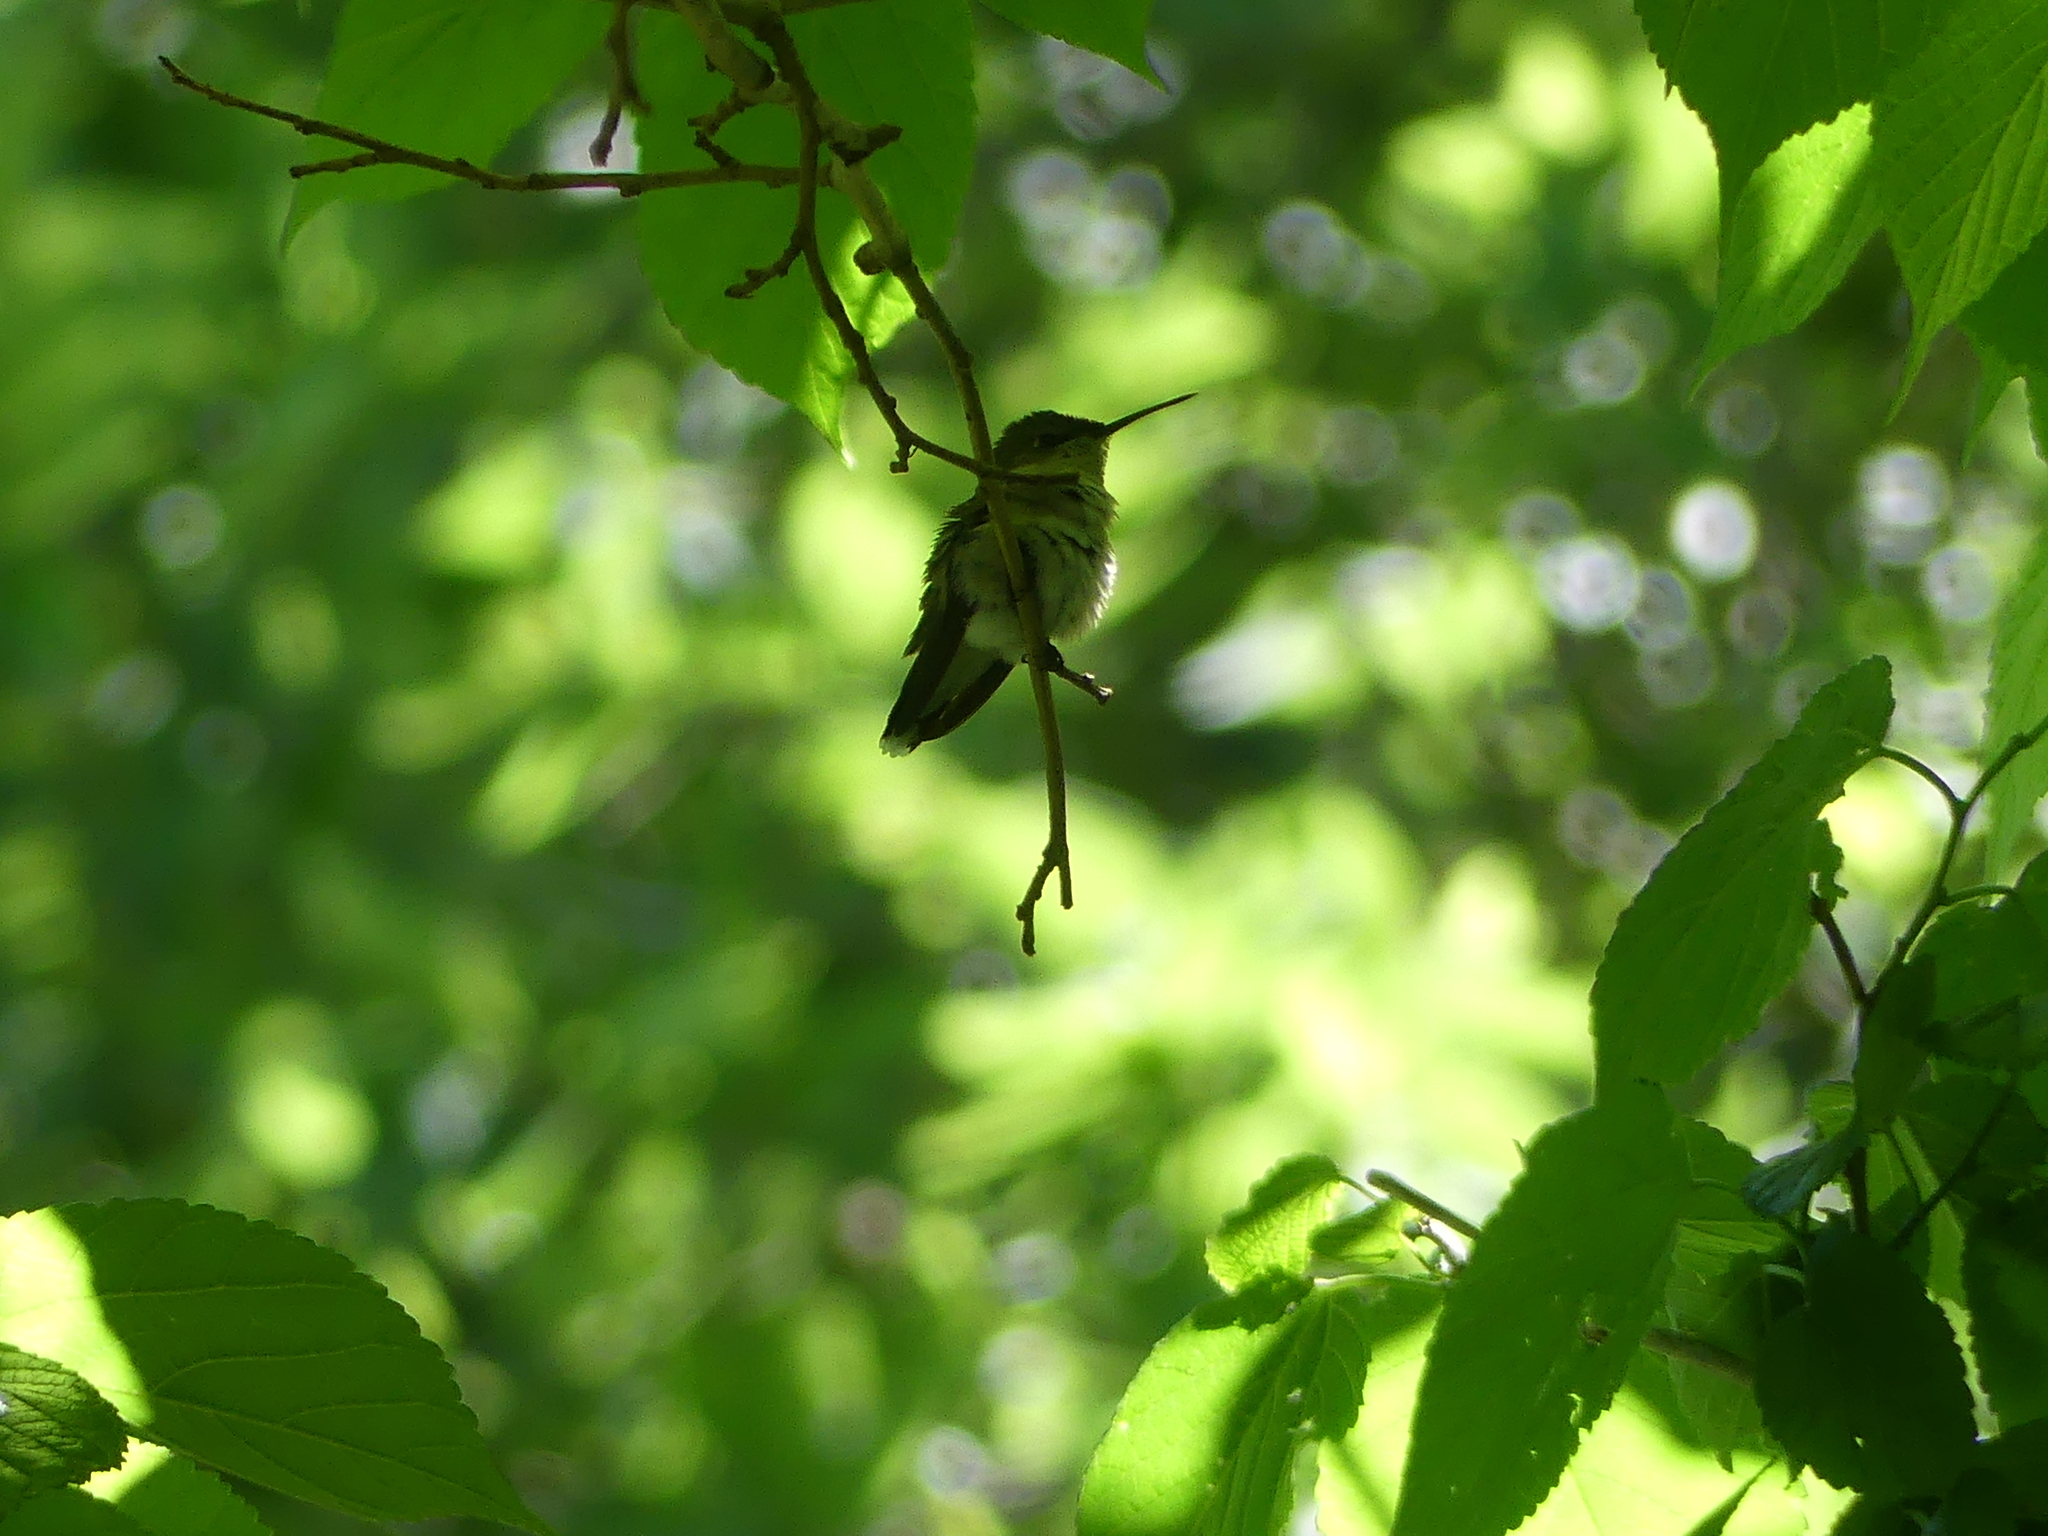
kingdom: Animalia
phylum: Chordata
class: Aves
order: Apodiformes
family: Trochilidae
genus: Archilochus
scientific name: Archilochus colubris
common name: Ruby-throated hummingbird
